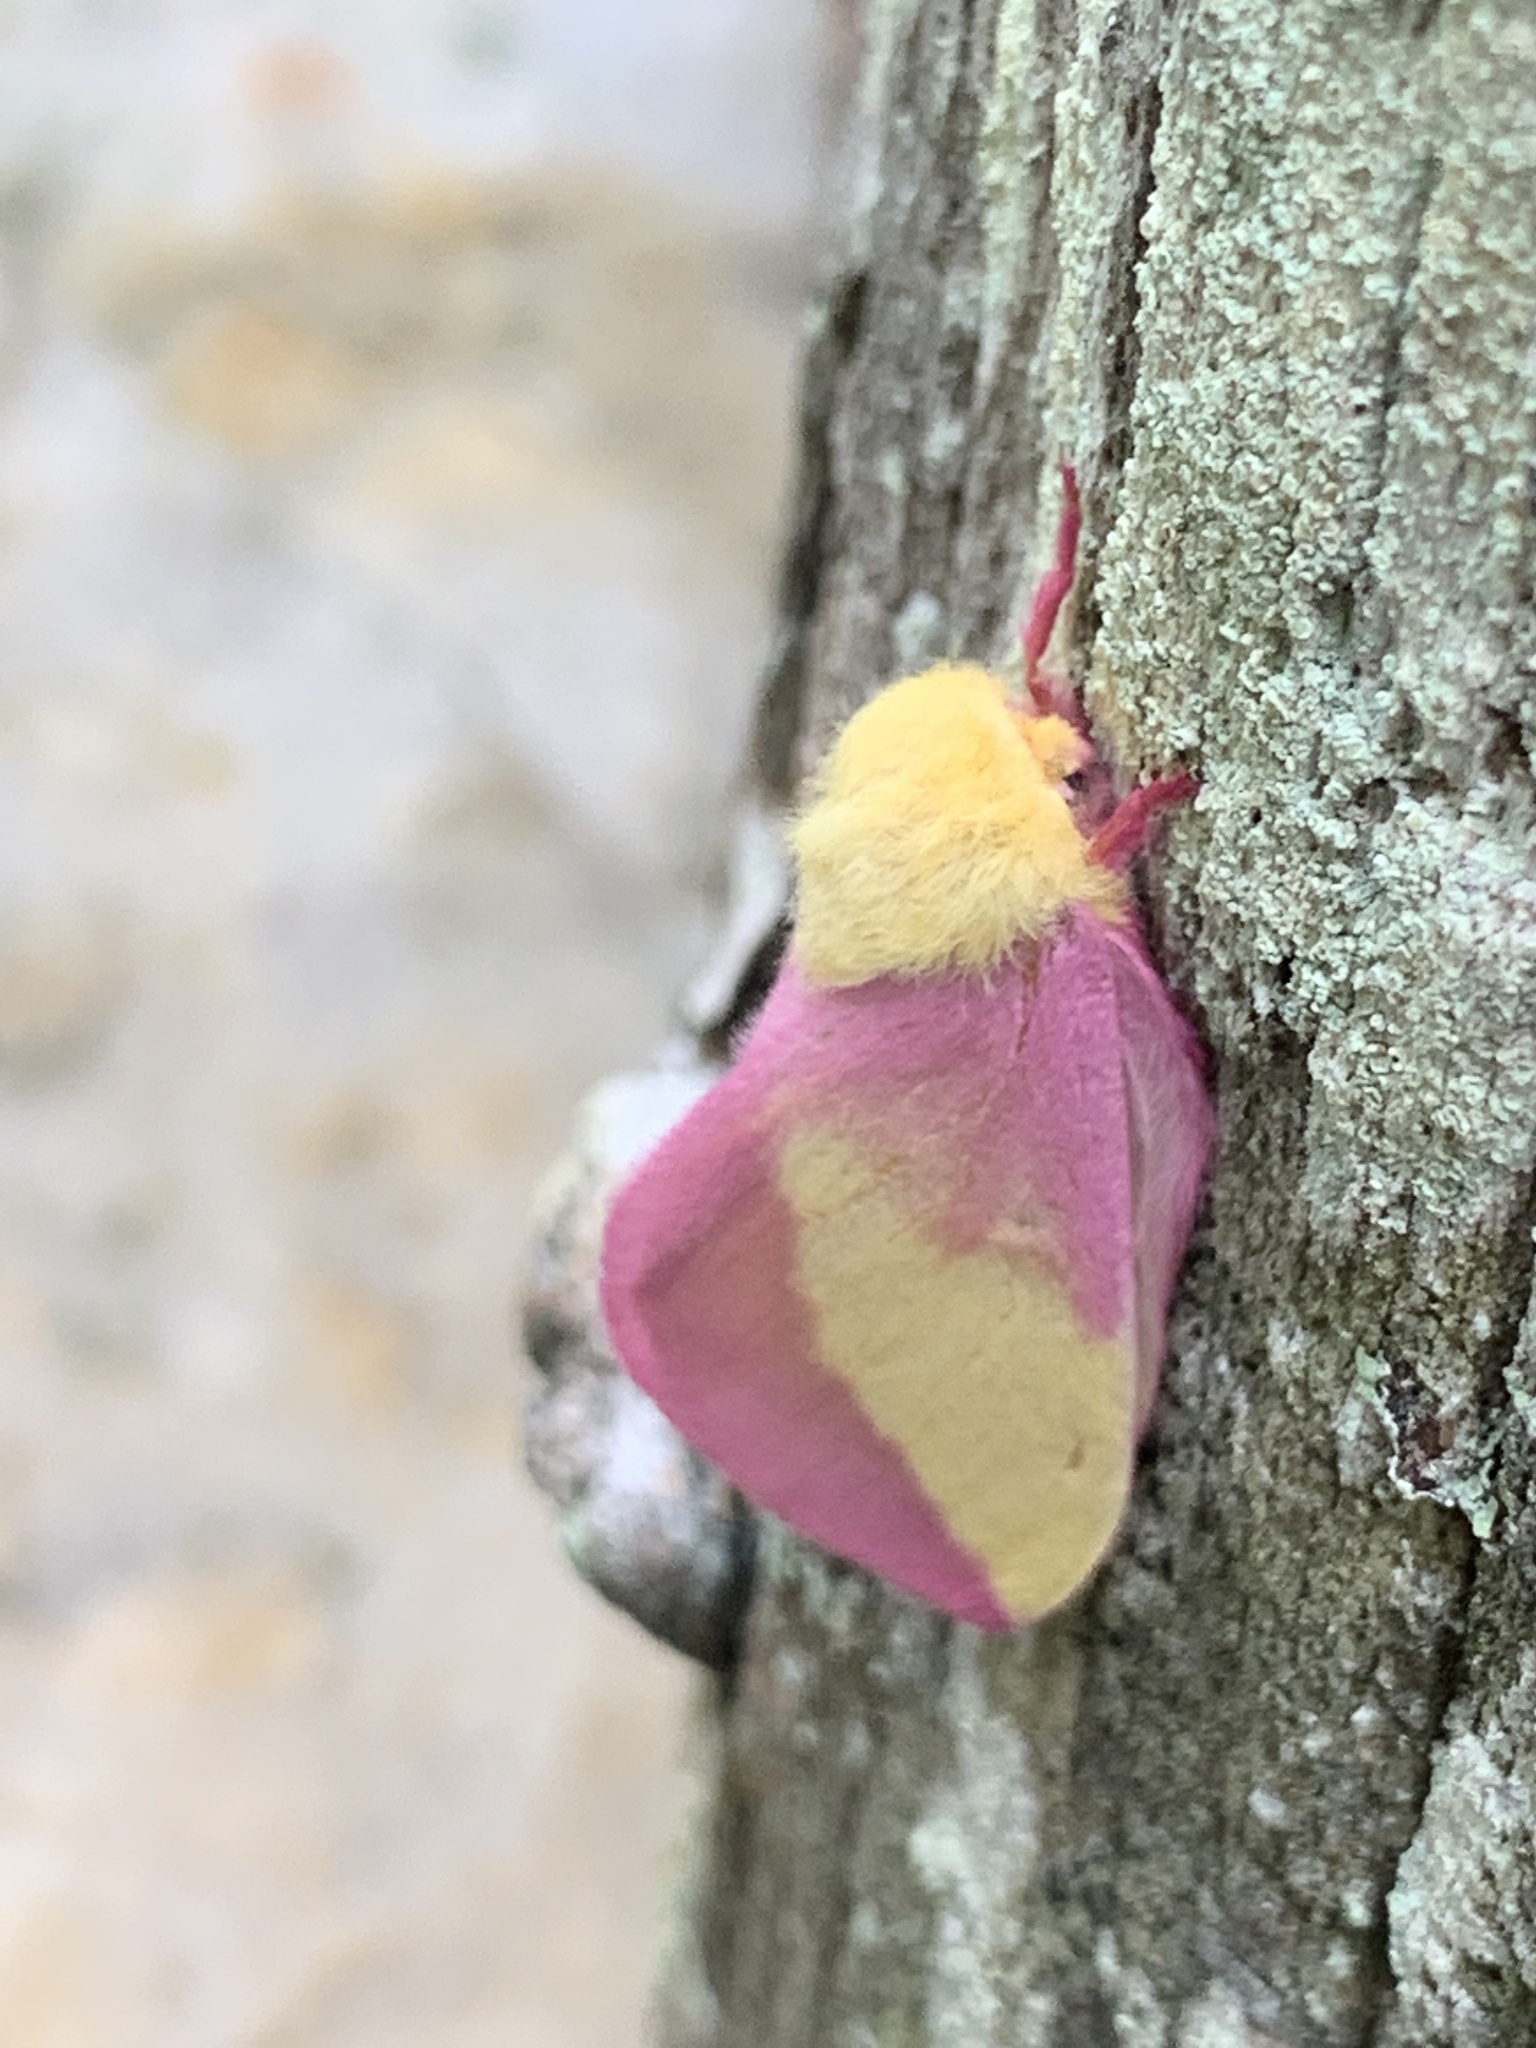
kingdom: Animalia
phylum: Arthropoda
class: Insecta
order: Lepidoptera
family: Saturniidae
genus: Dryocampa
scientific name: Dryocampa rubicunda
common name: Rosy maple moth
